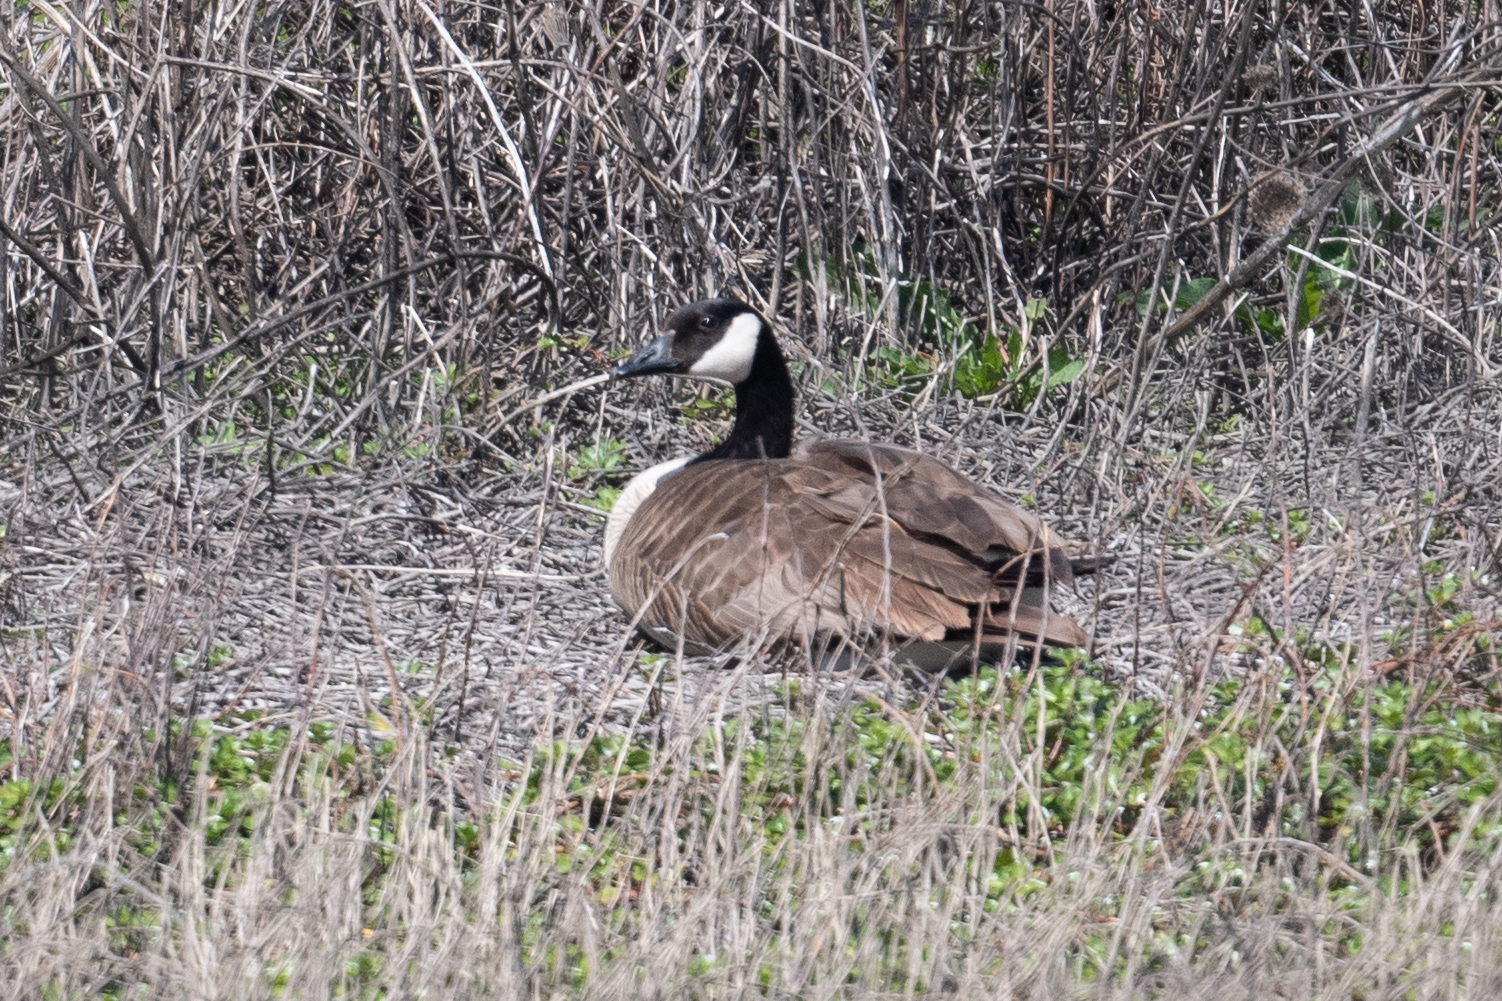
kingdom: Animalia
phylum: Chordata
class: Aves
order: Anseriformes
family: Anatidae
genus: Branta
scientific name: Branta canadensis
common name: Canada goose
